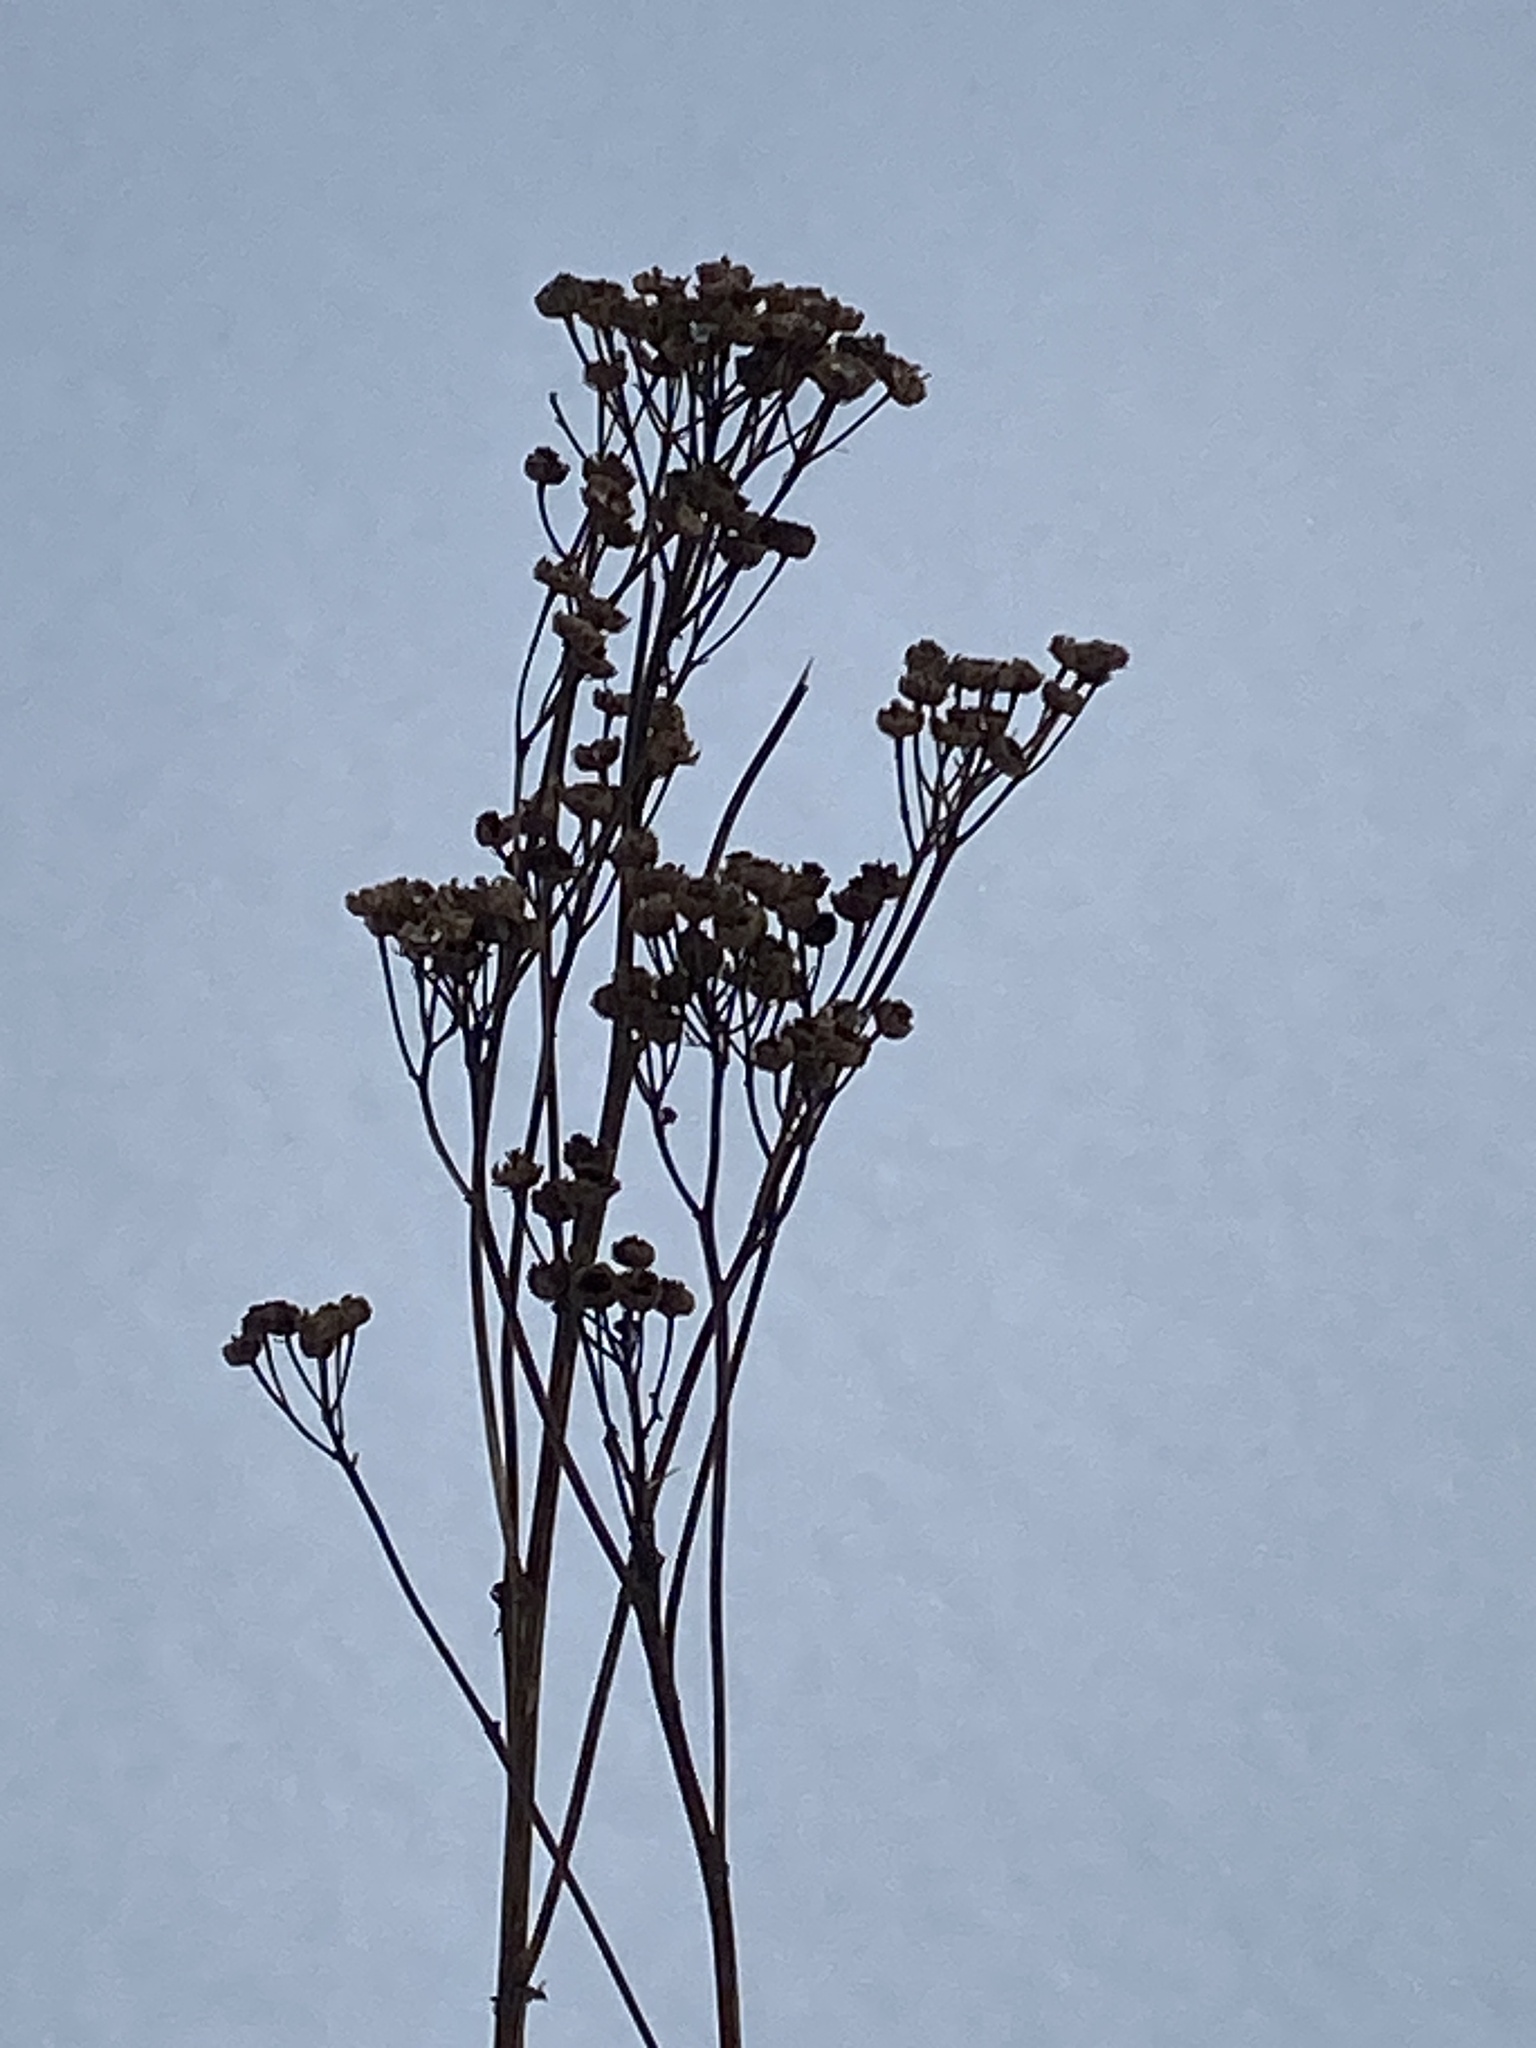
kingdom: Plantae
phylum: Tracheophyta
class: Magnoliopsida
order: Asterales
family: Asteraceae
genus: Tanacetum
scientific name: Tanacetum vulgare
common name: Common tansy
